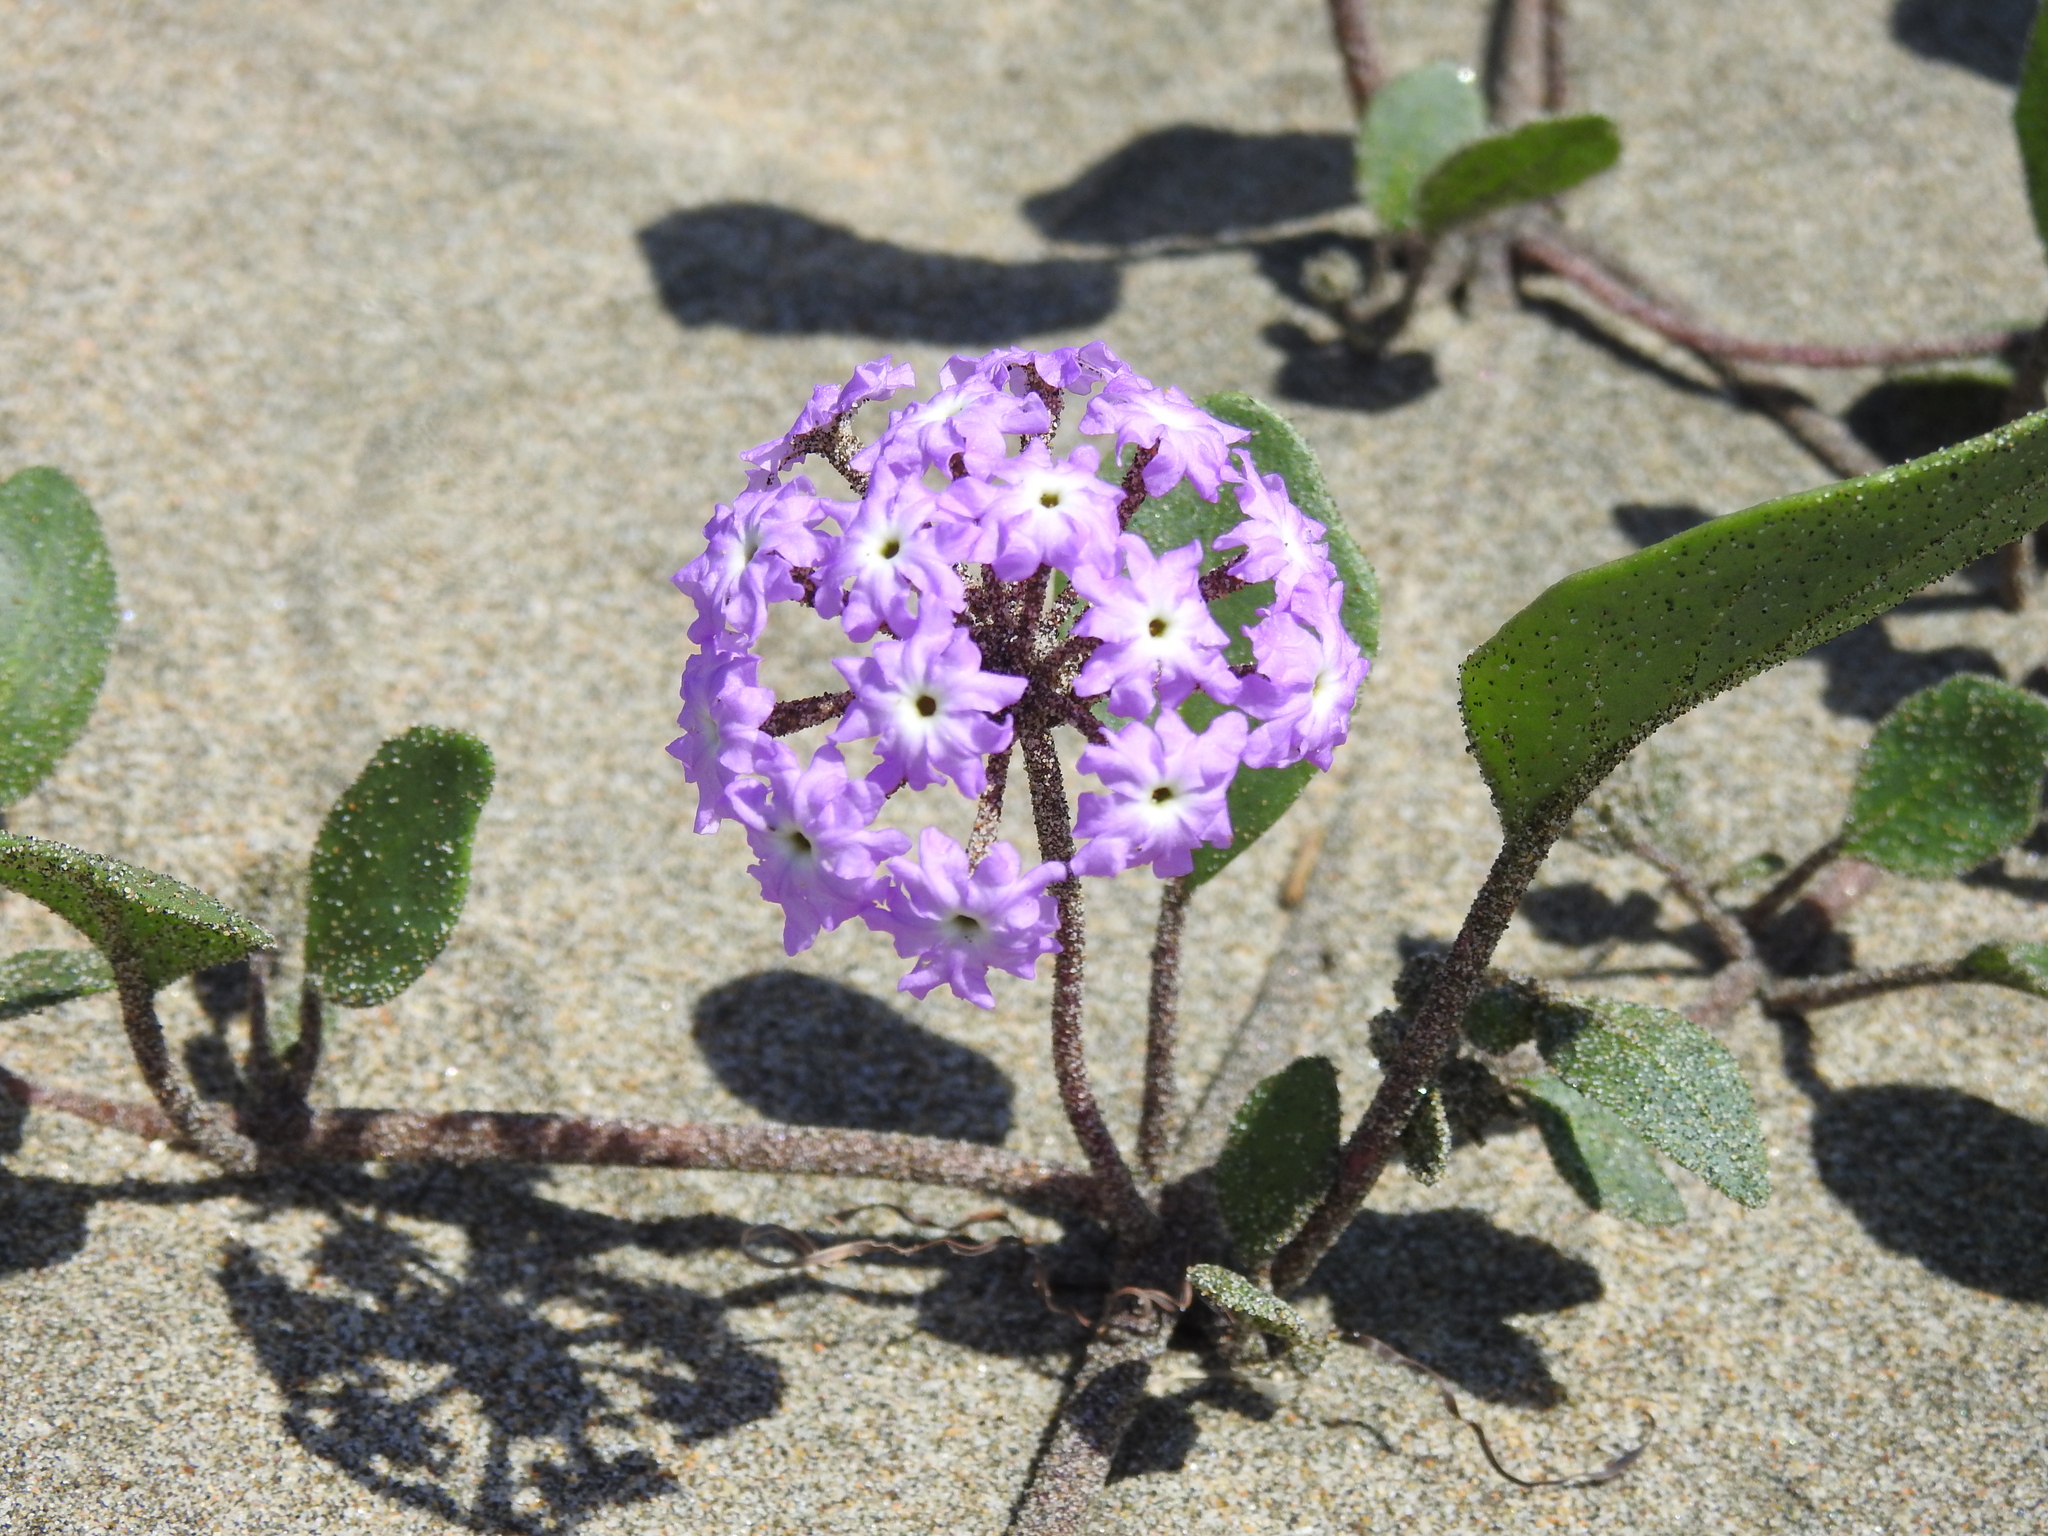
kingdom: Plantae
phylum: Tracheophyta
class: Magnoliopsida
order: Caryophyllales
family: Nyctaginaceae
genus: Abronia
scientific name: Abronia umbellata
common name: Sand-verbena
